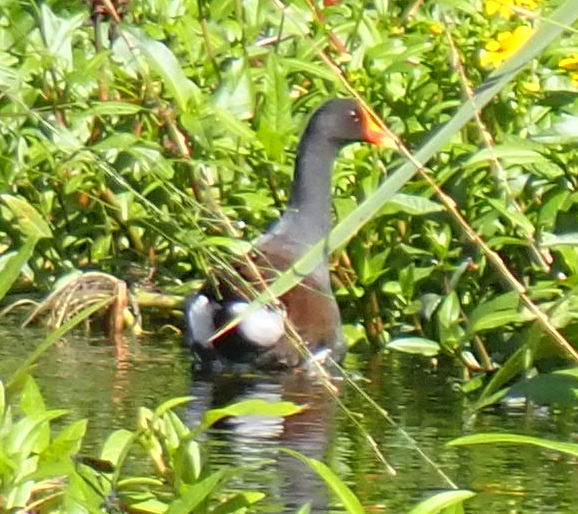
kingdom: Animalia
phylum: Chordata
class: Aves
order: Gruiformes
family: Rallidae
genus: Gallinula
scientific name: Gallinula chloropus
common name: Common moorhen
